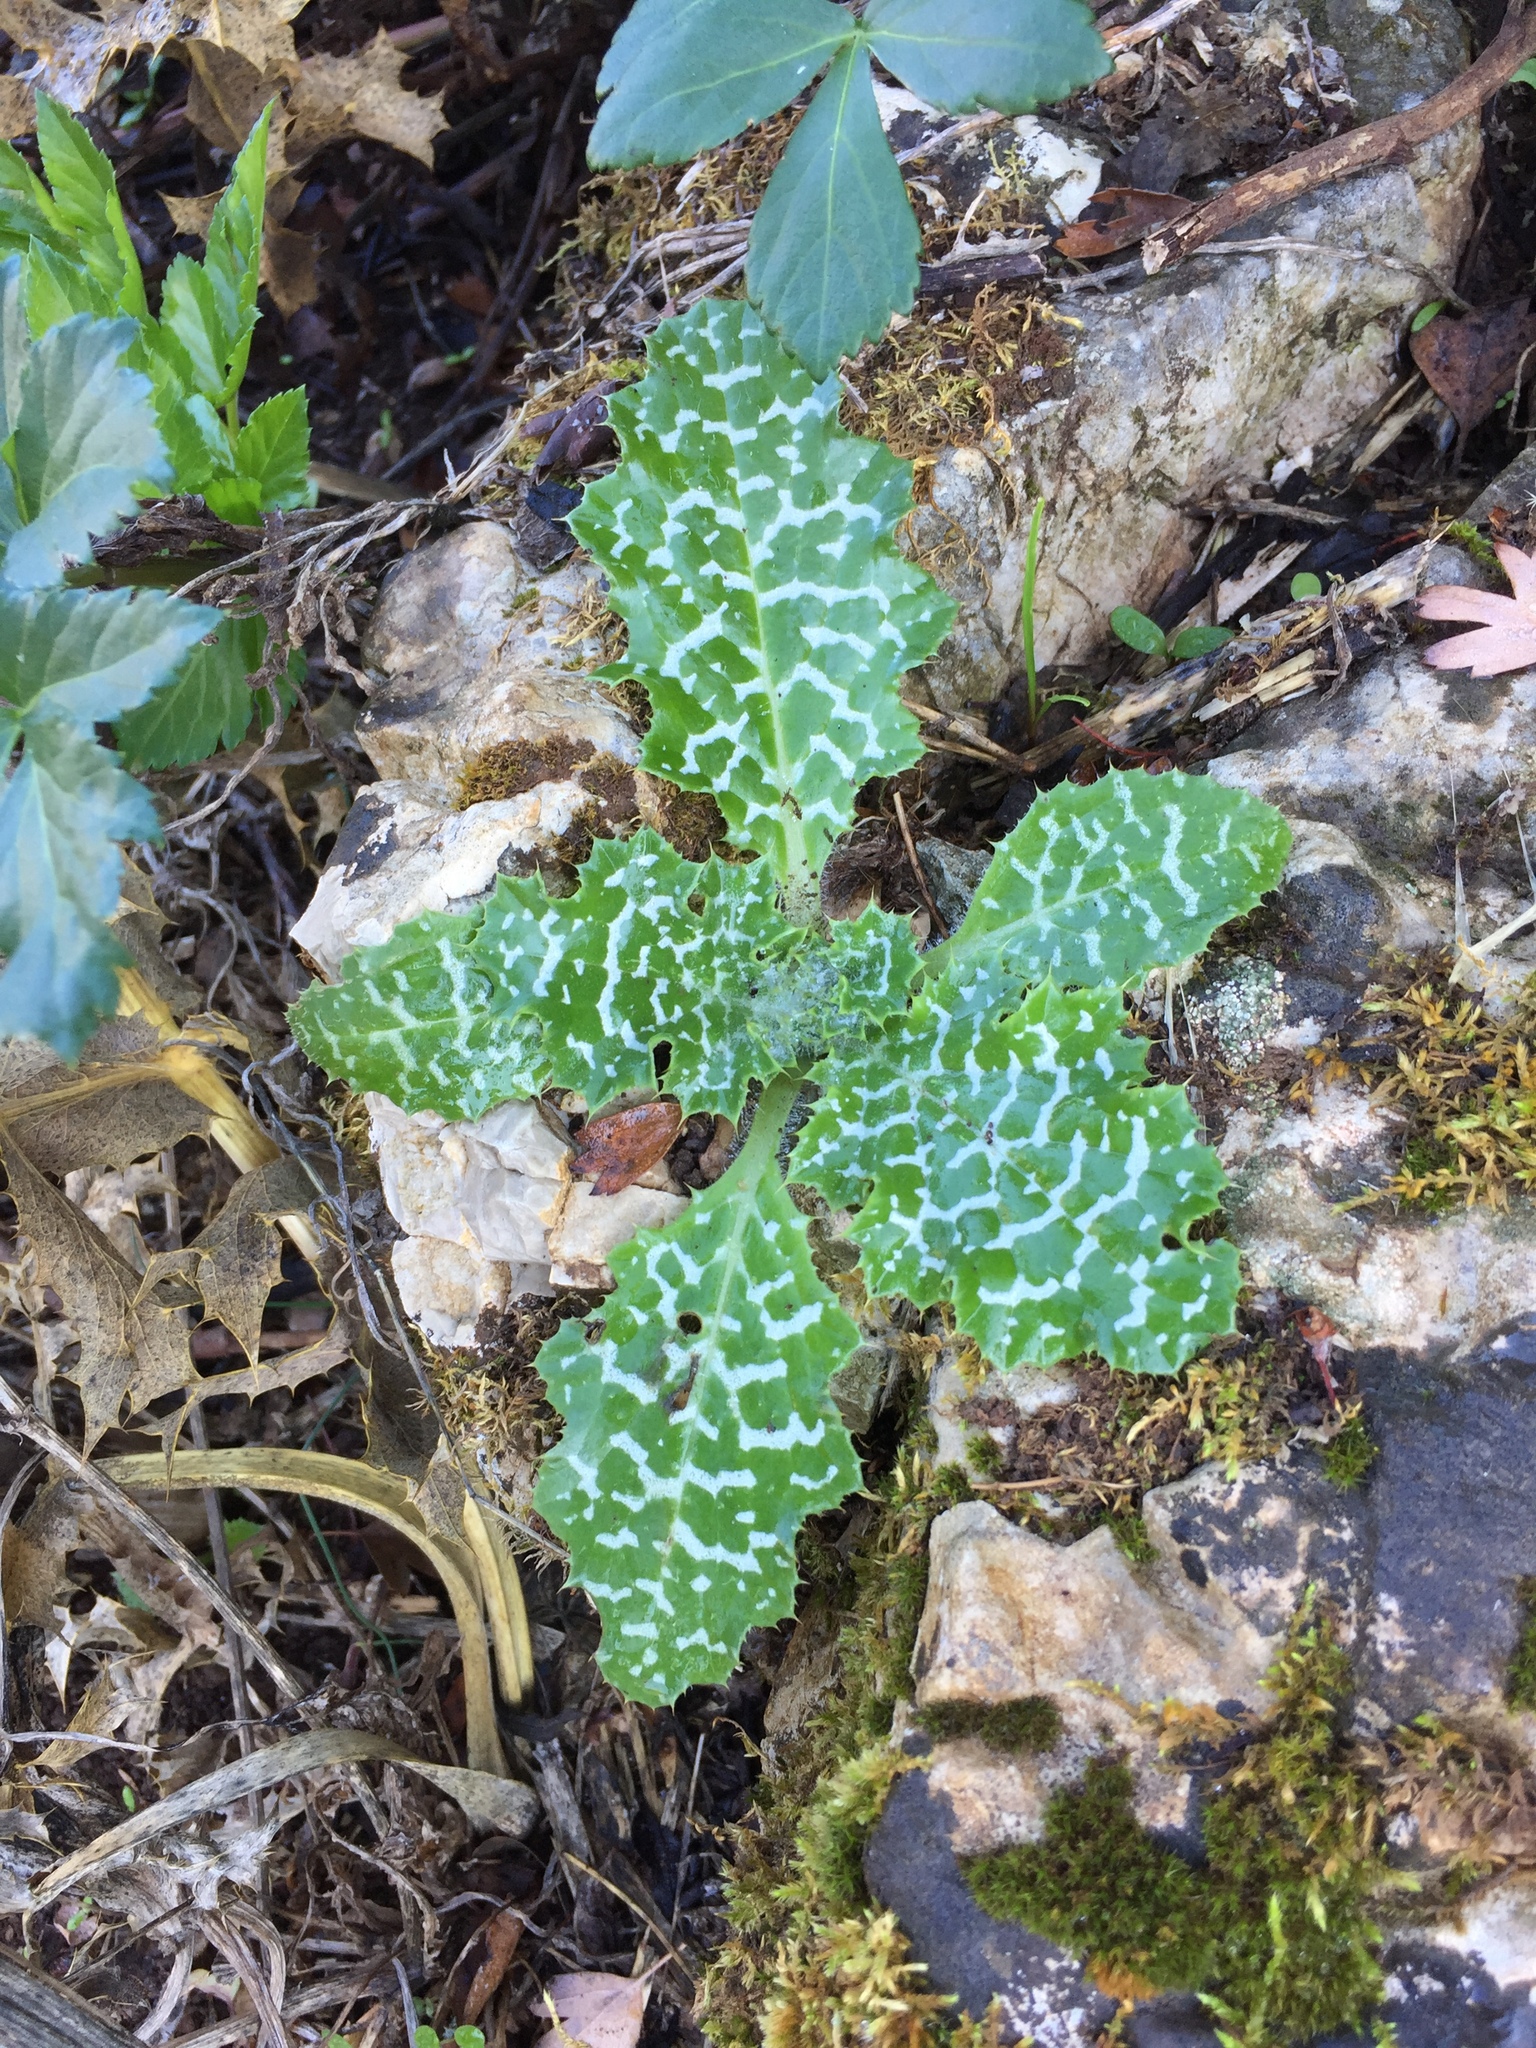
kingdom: Plantae
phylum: Tracheophyta
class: Magnoliopsida
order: Asterales
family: Asteraceae
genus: Silybum
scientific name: Silybum marianum
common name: Milk thistle
